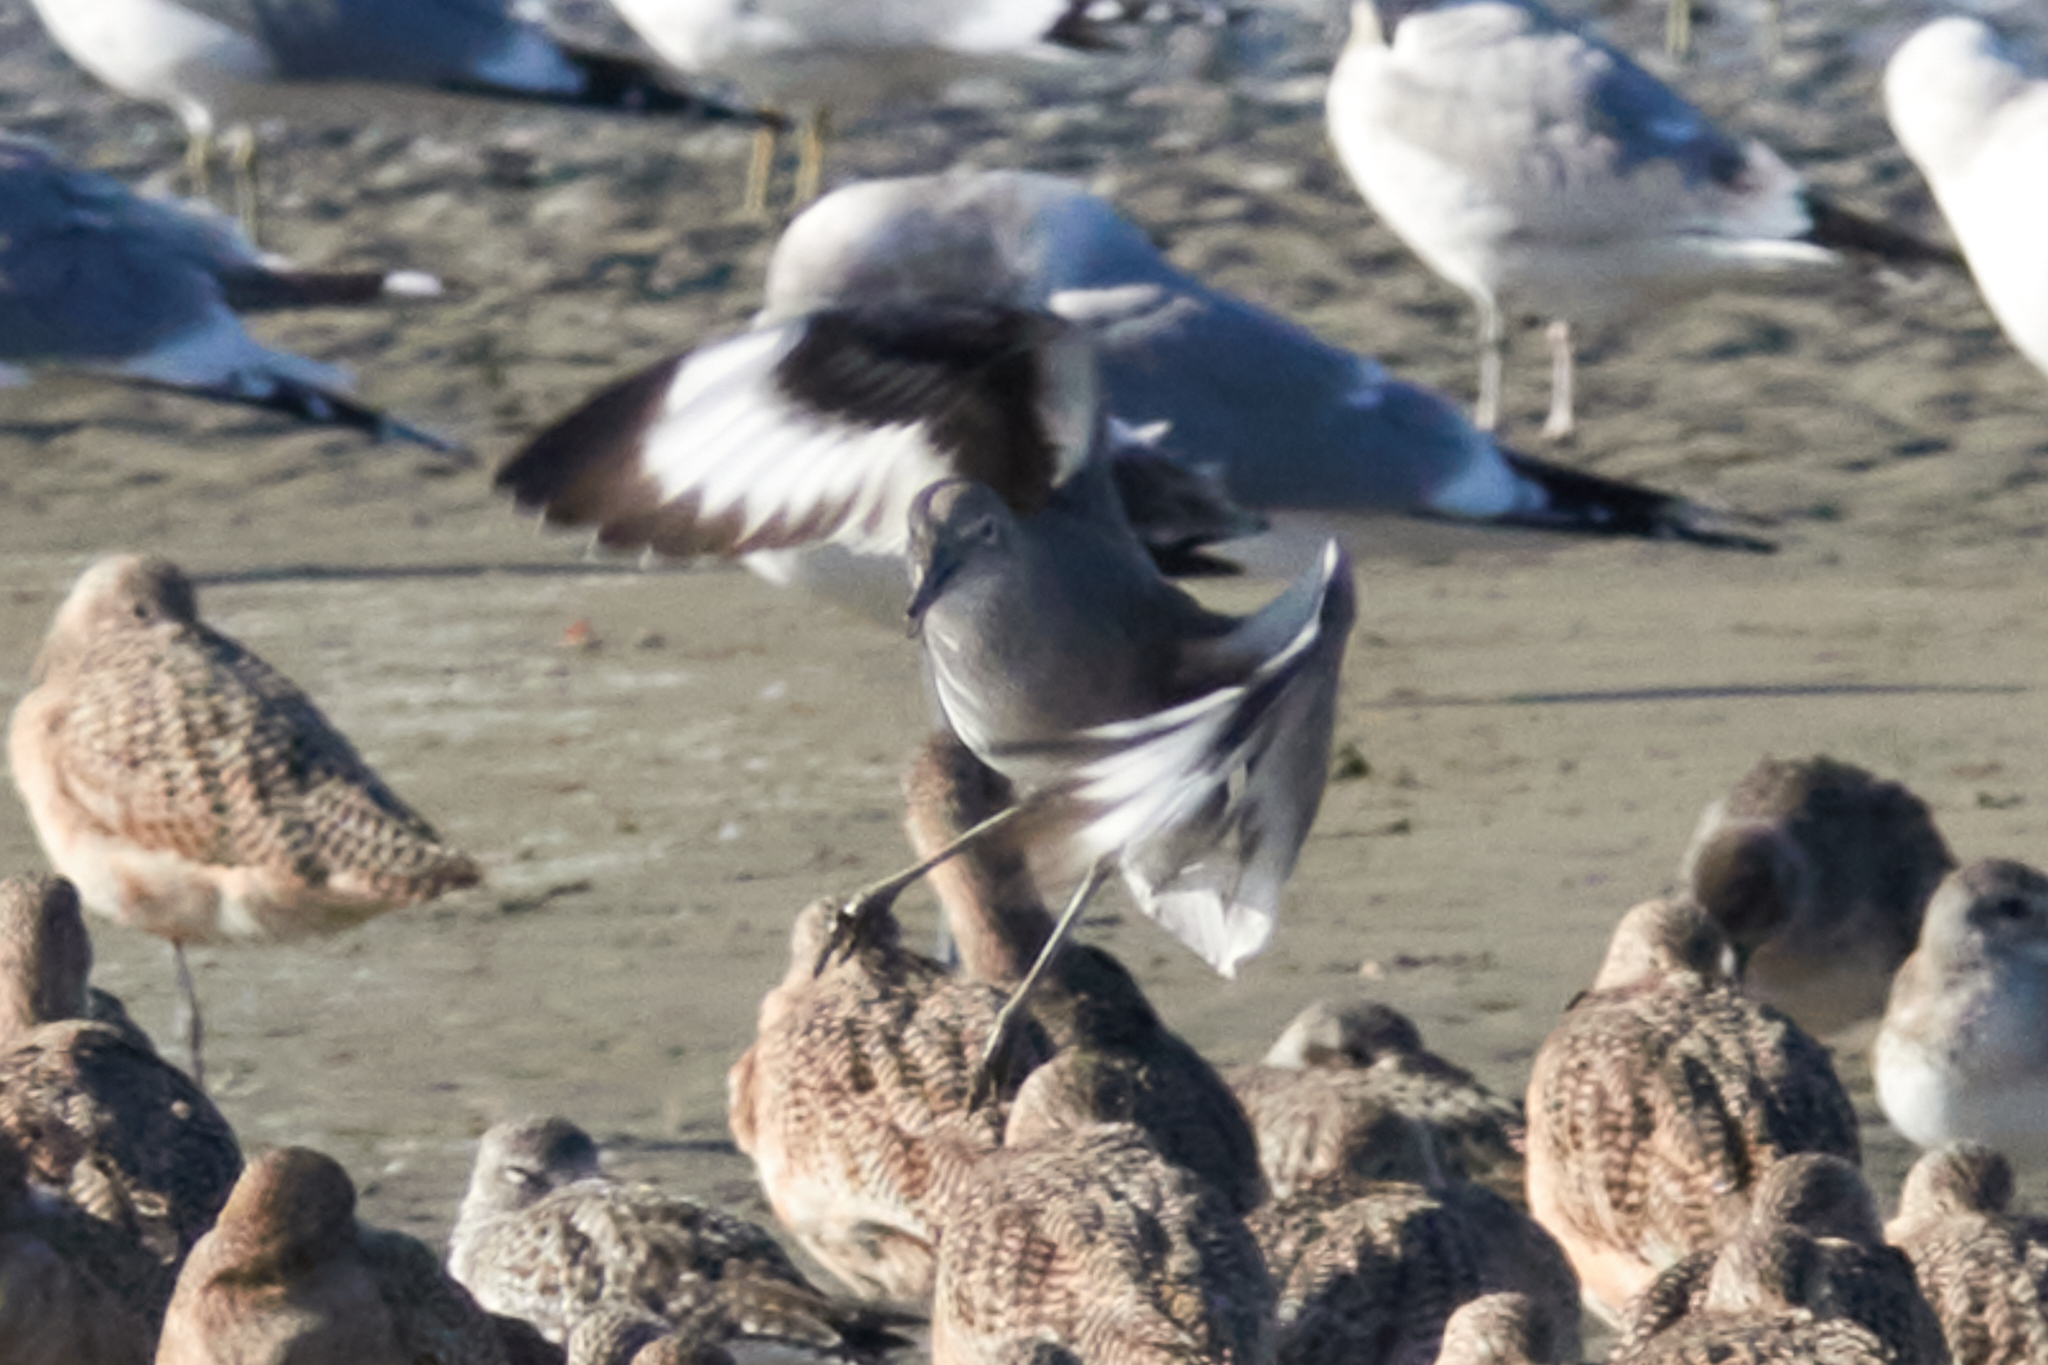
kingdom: Animalia
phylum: Chordata
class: Aves
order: Charadriiformes
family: Scolopacidae
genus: Tringa
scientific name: Tringa semipalmata
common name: Willet
